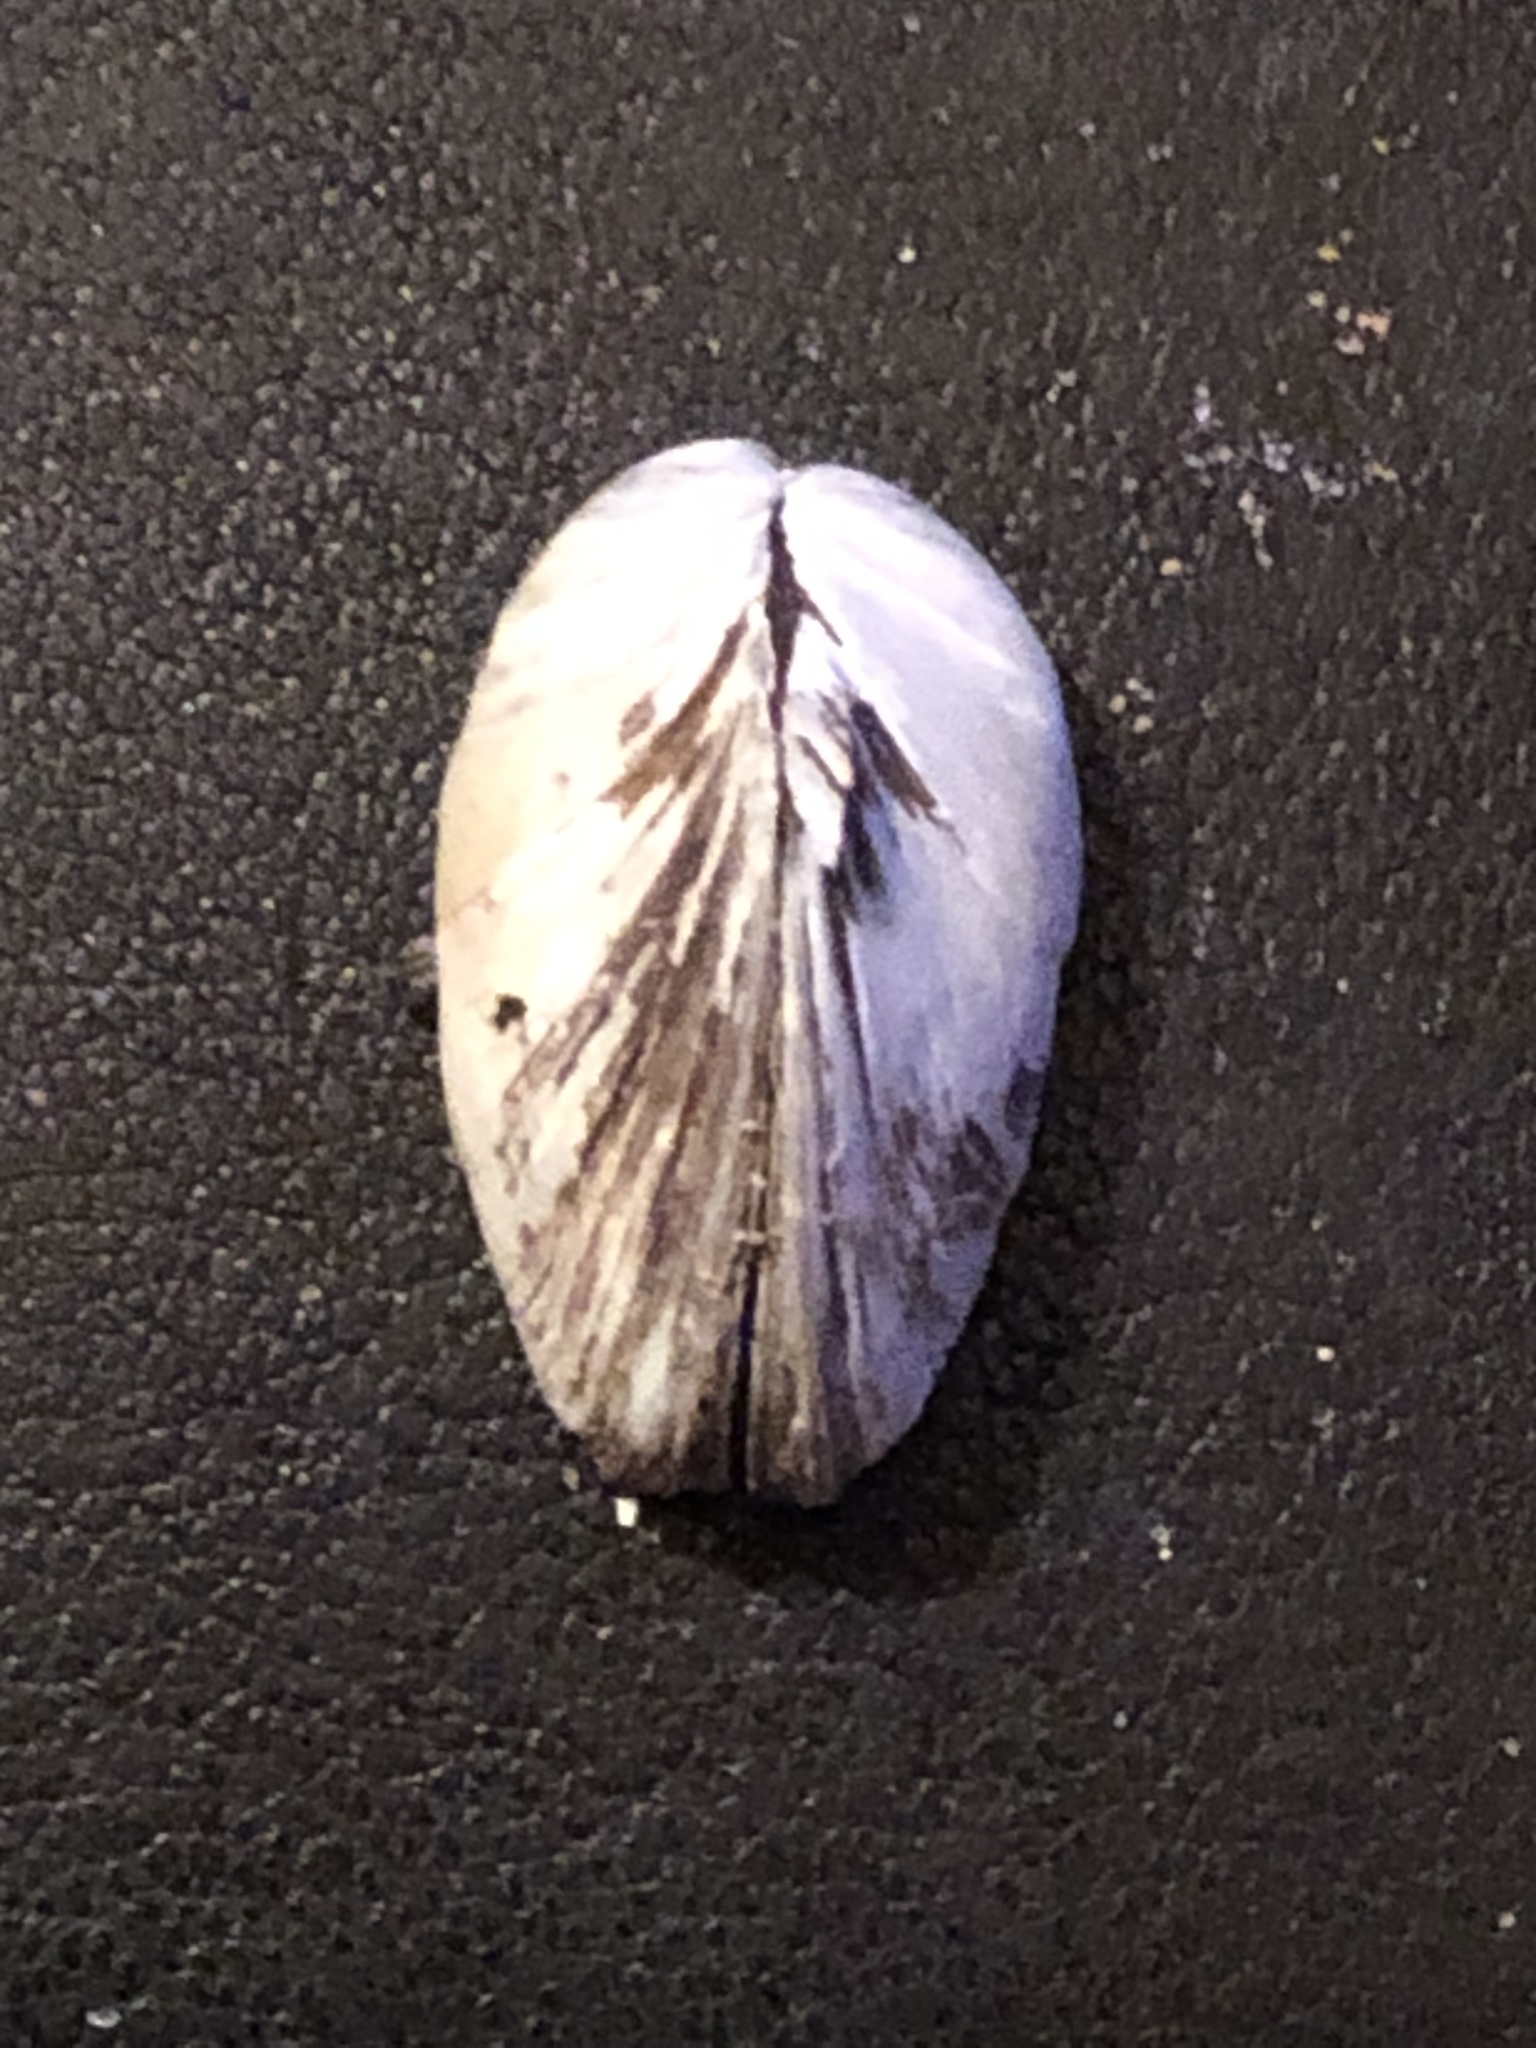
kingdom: Animalia
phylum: Mollusca
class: Bivalvia
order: Myida
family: Dreissenidae
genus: Dreissena
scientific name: Dreissena polymorpha
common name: Zebra mussel
